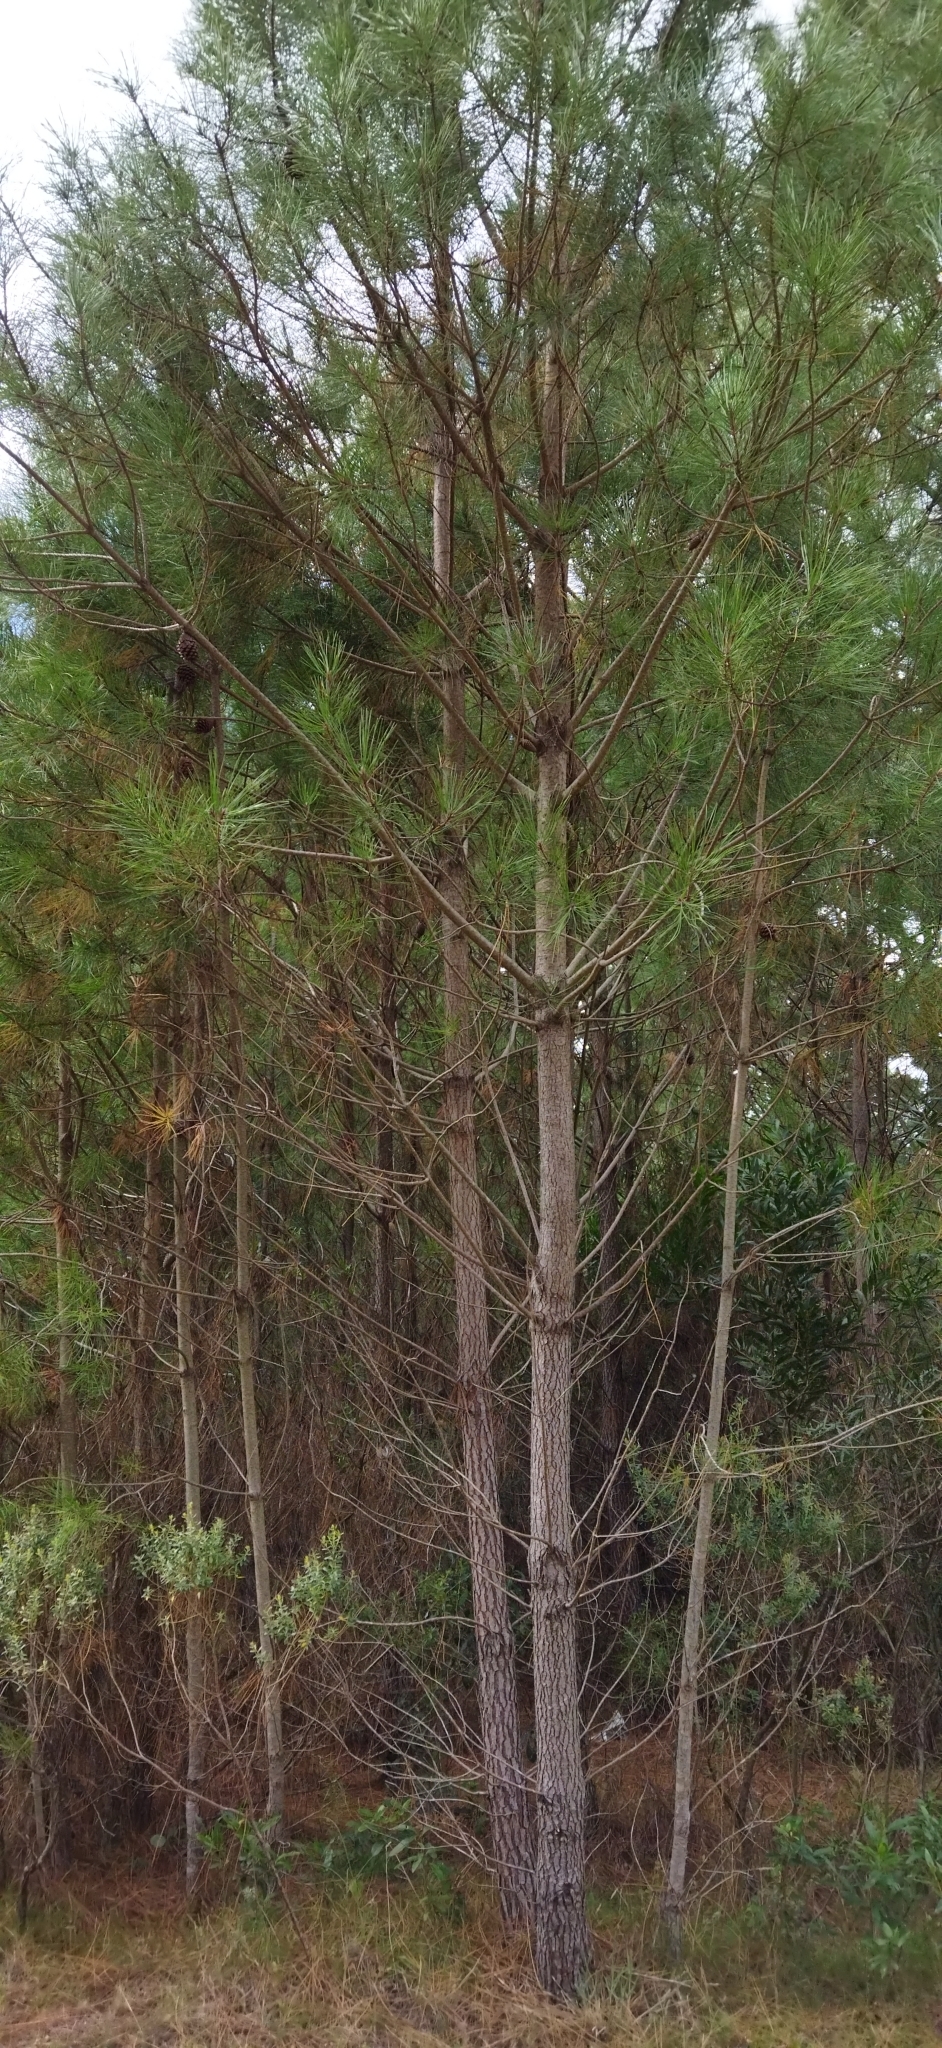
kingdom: Plantae
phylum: Tracheophyta
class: Pinopsida
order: Pinales
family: Pinaceae
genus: Pinus
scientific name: Pinus pinaster
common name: Maritime pine
